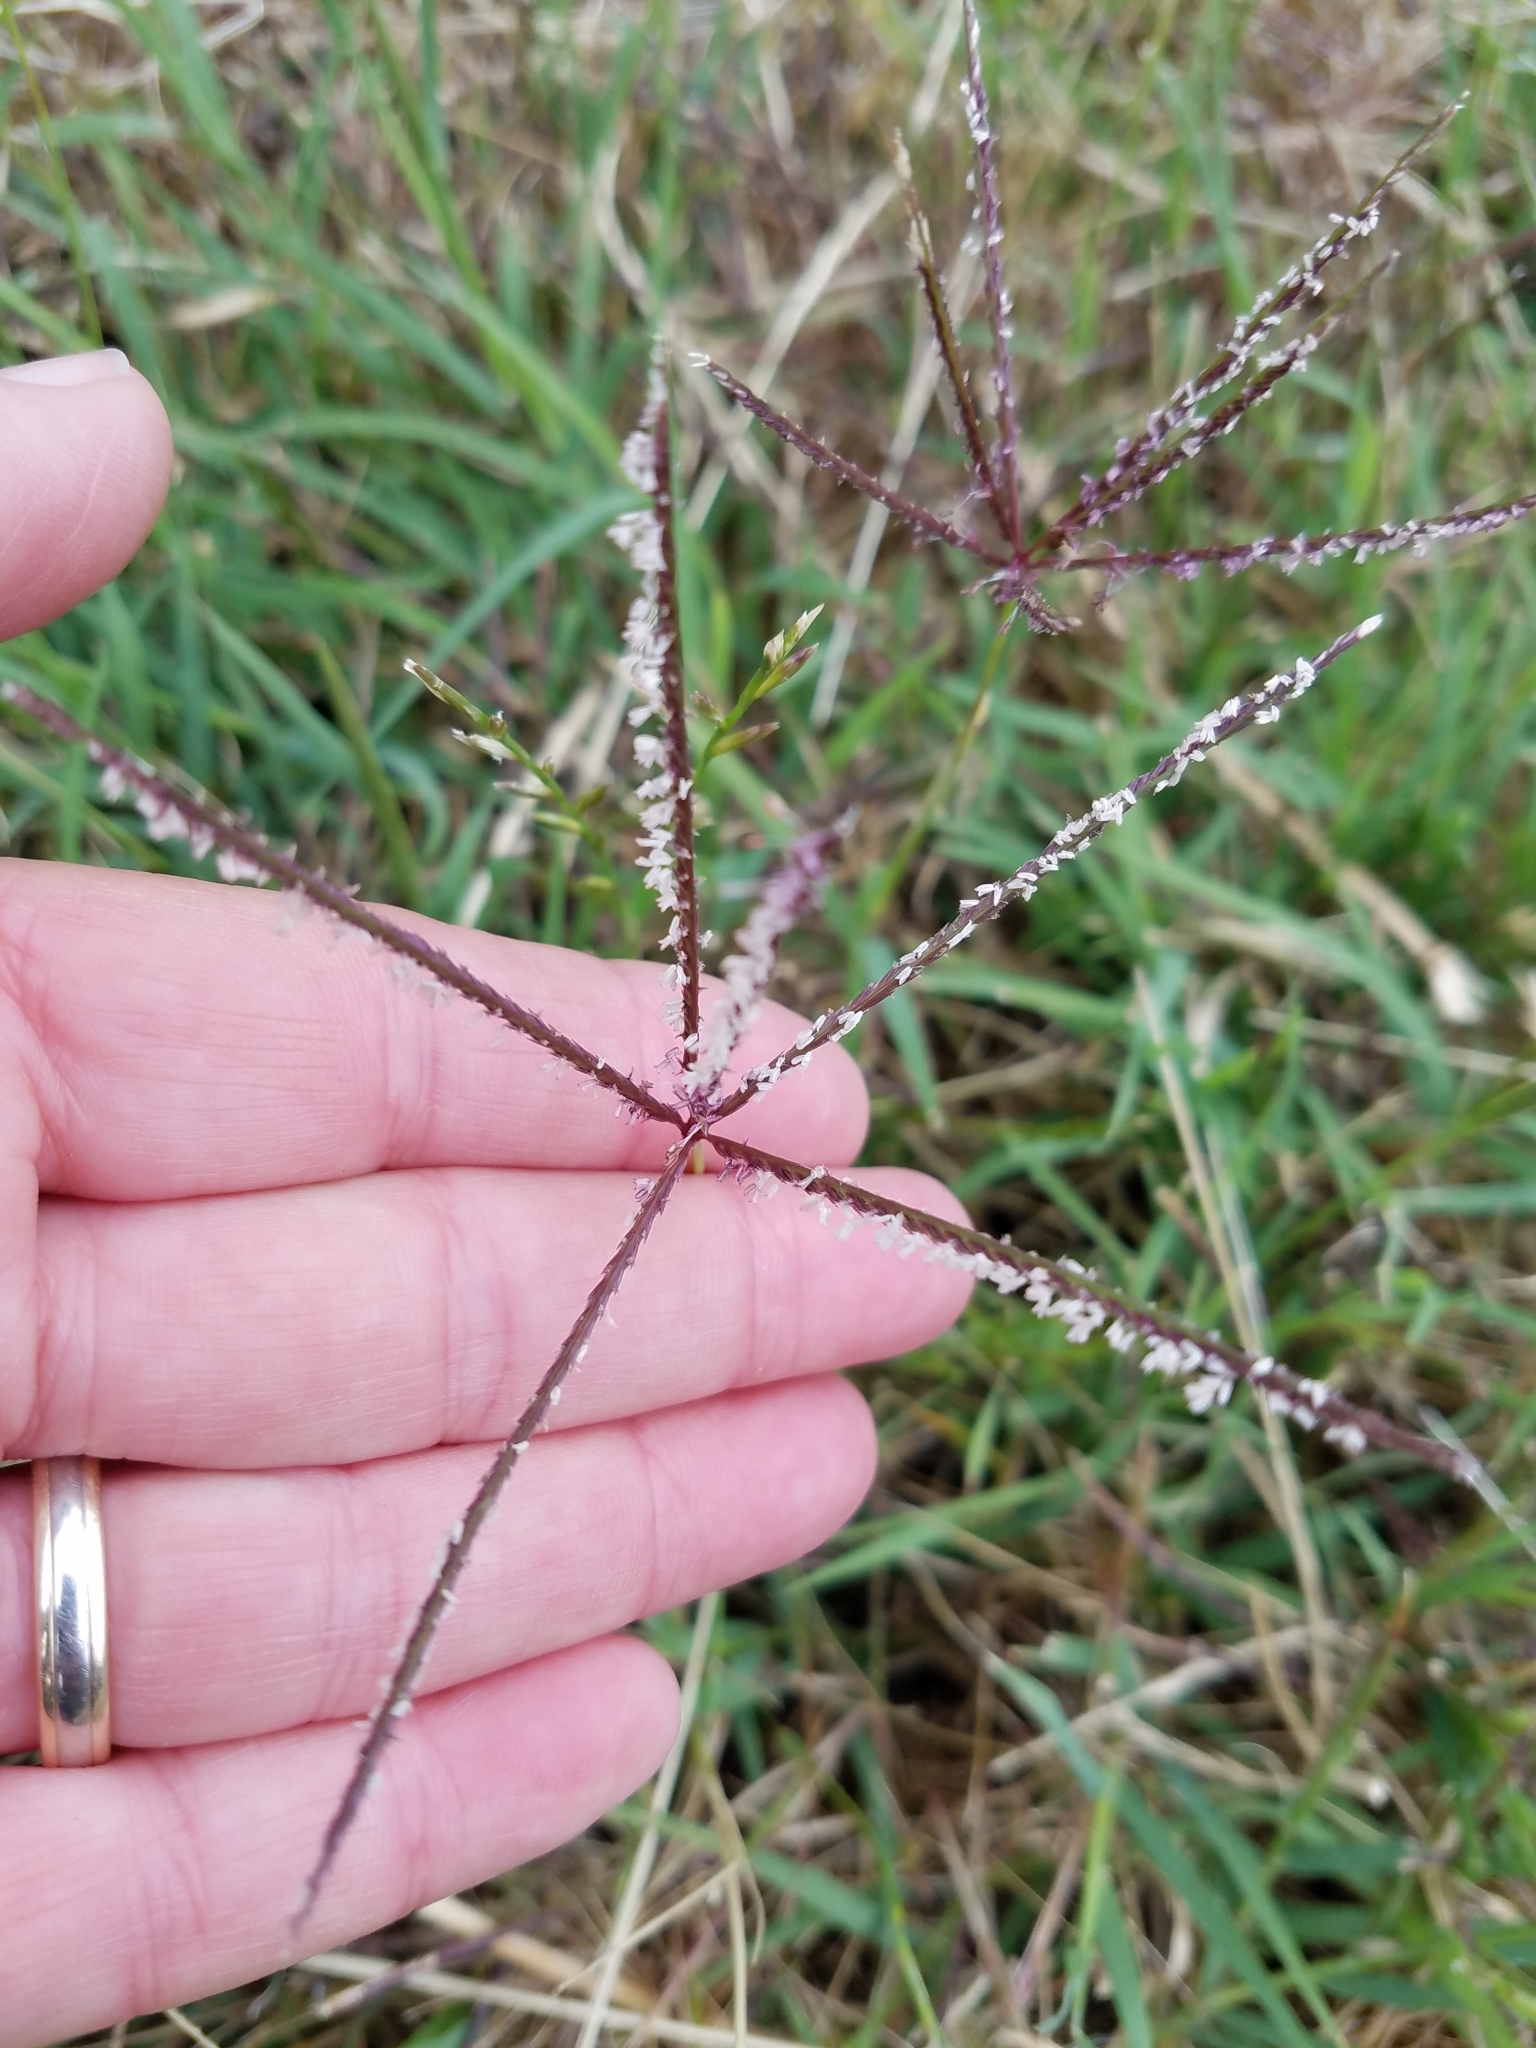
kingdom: Plantae
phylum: Tracheophyta
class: Liliopsida
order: Poales
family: Poaceae
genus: Cynodon
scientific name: Cynodon dactylon
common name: Bermuda grass
